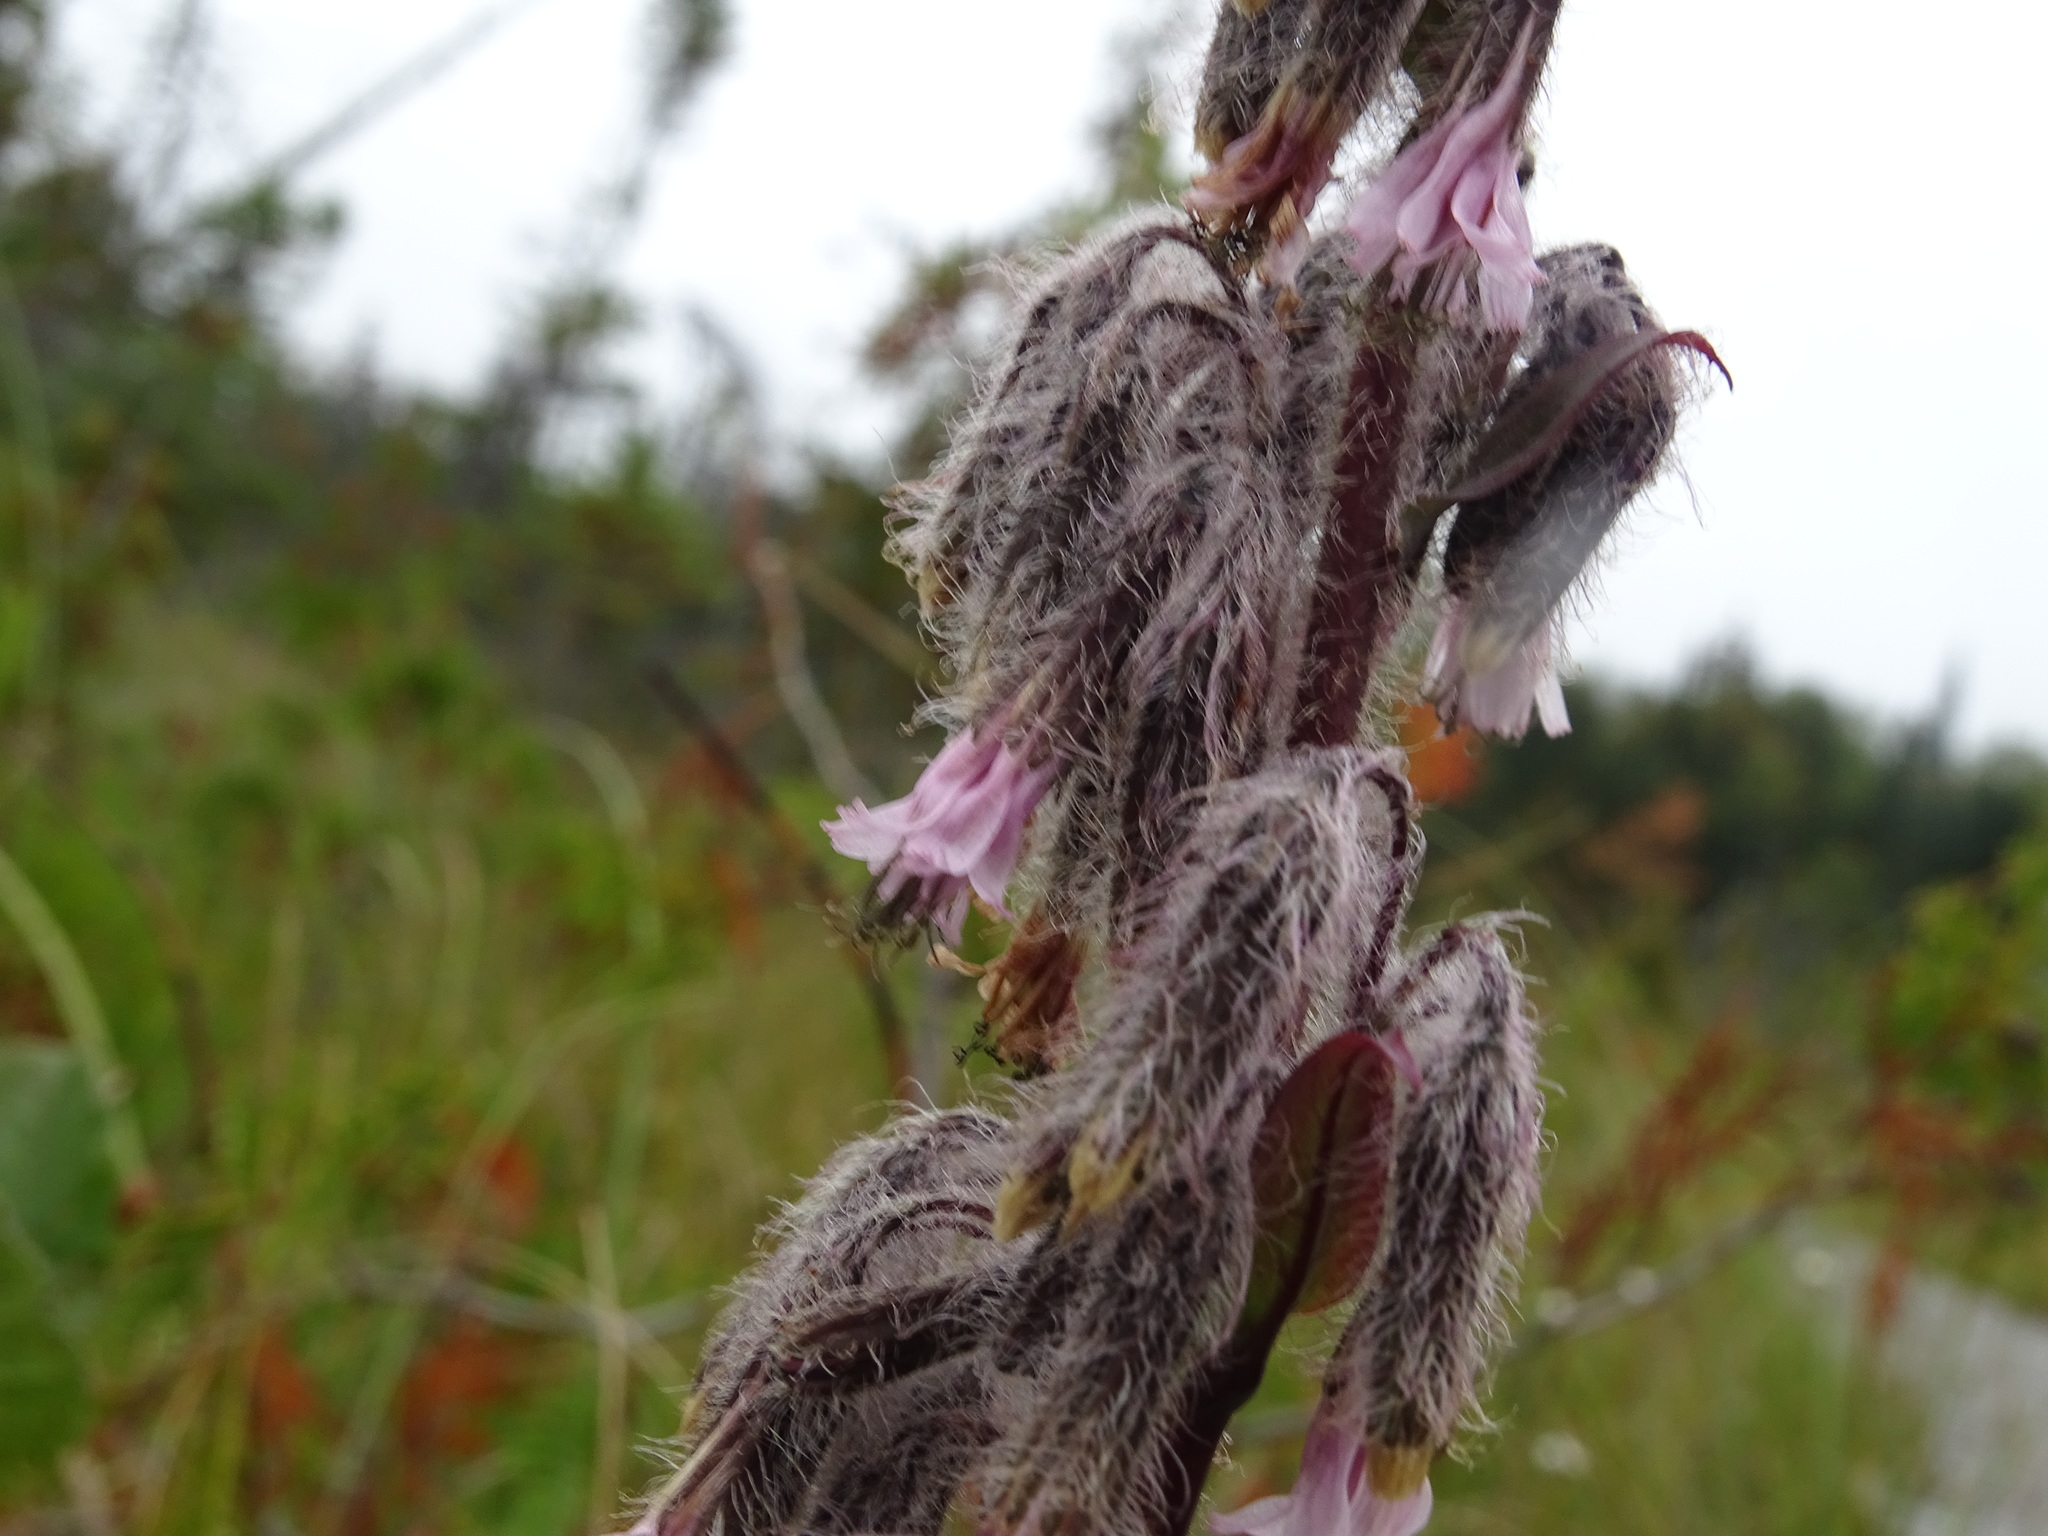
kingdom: Plantae
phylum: Tracheophyta
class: Magnoliopsida
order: Asterales
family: Asteraceae
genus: Nabalus
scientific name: Nabalus racemosus
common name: Glaucous white lettuce
